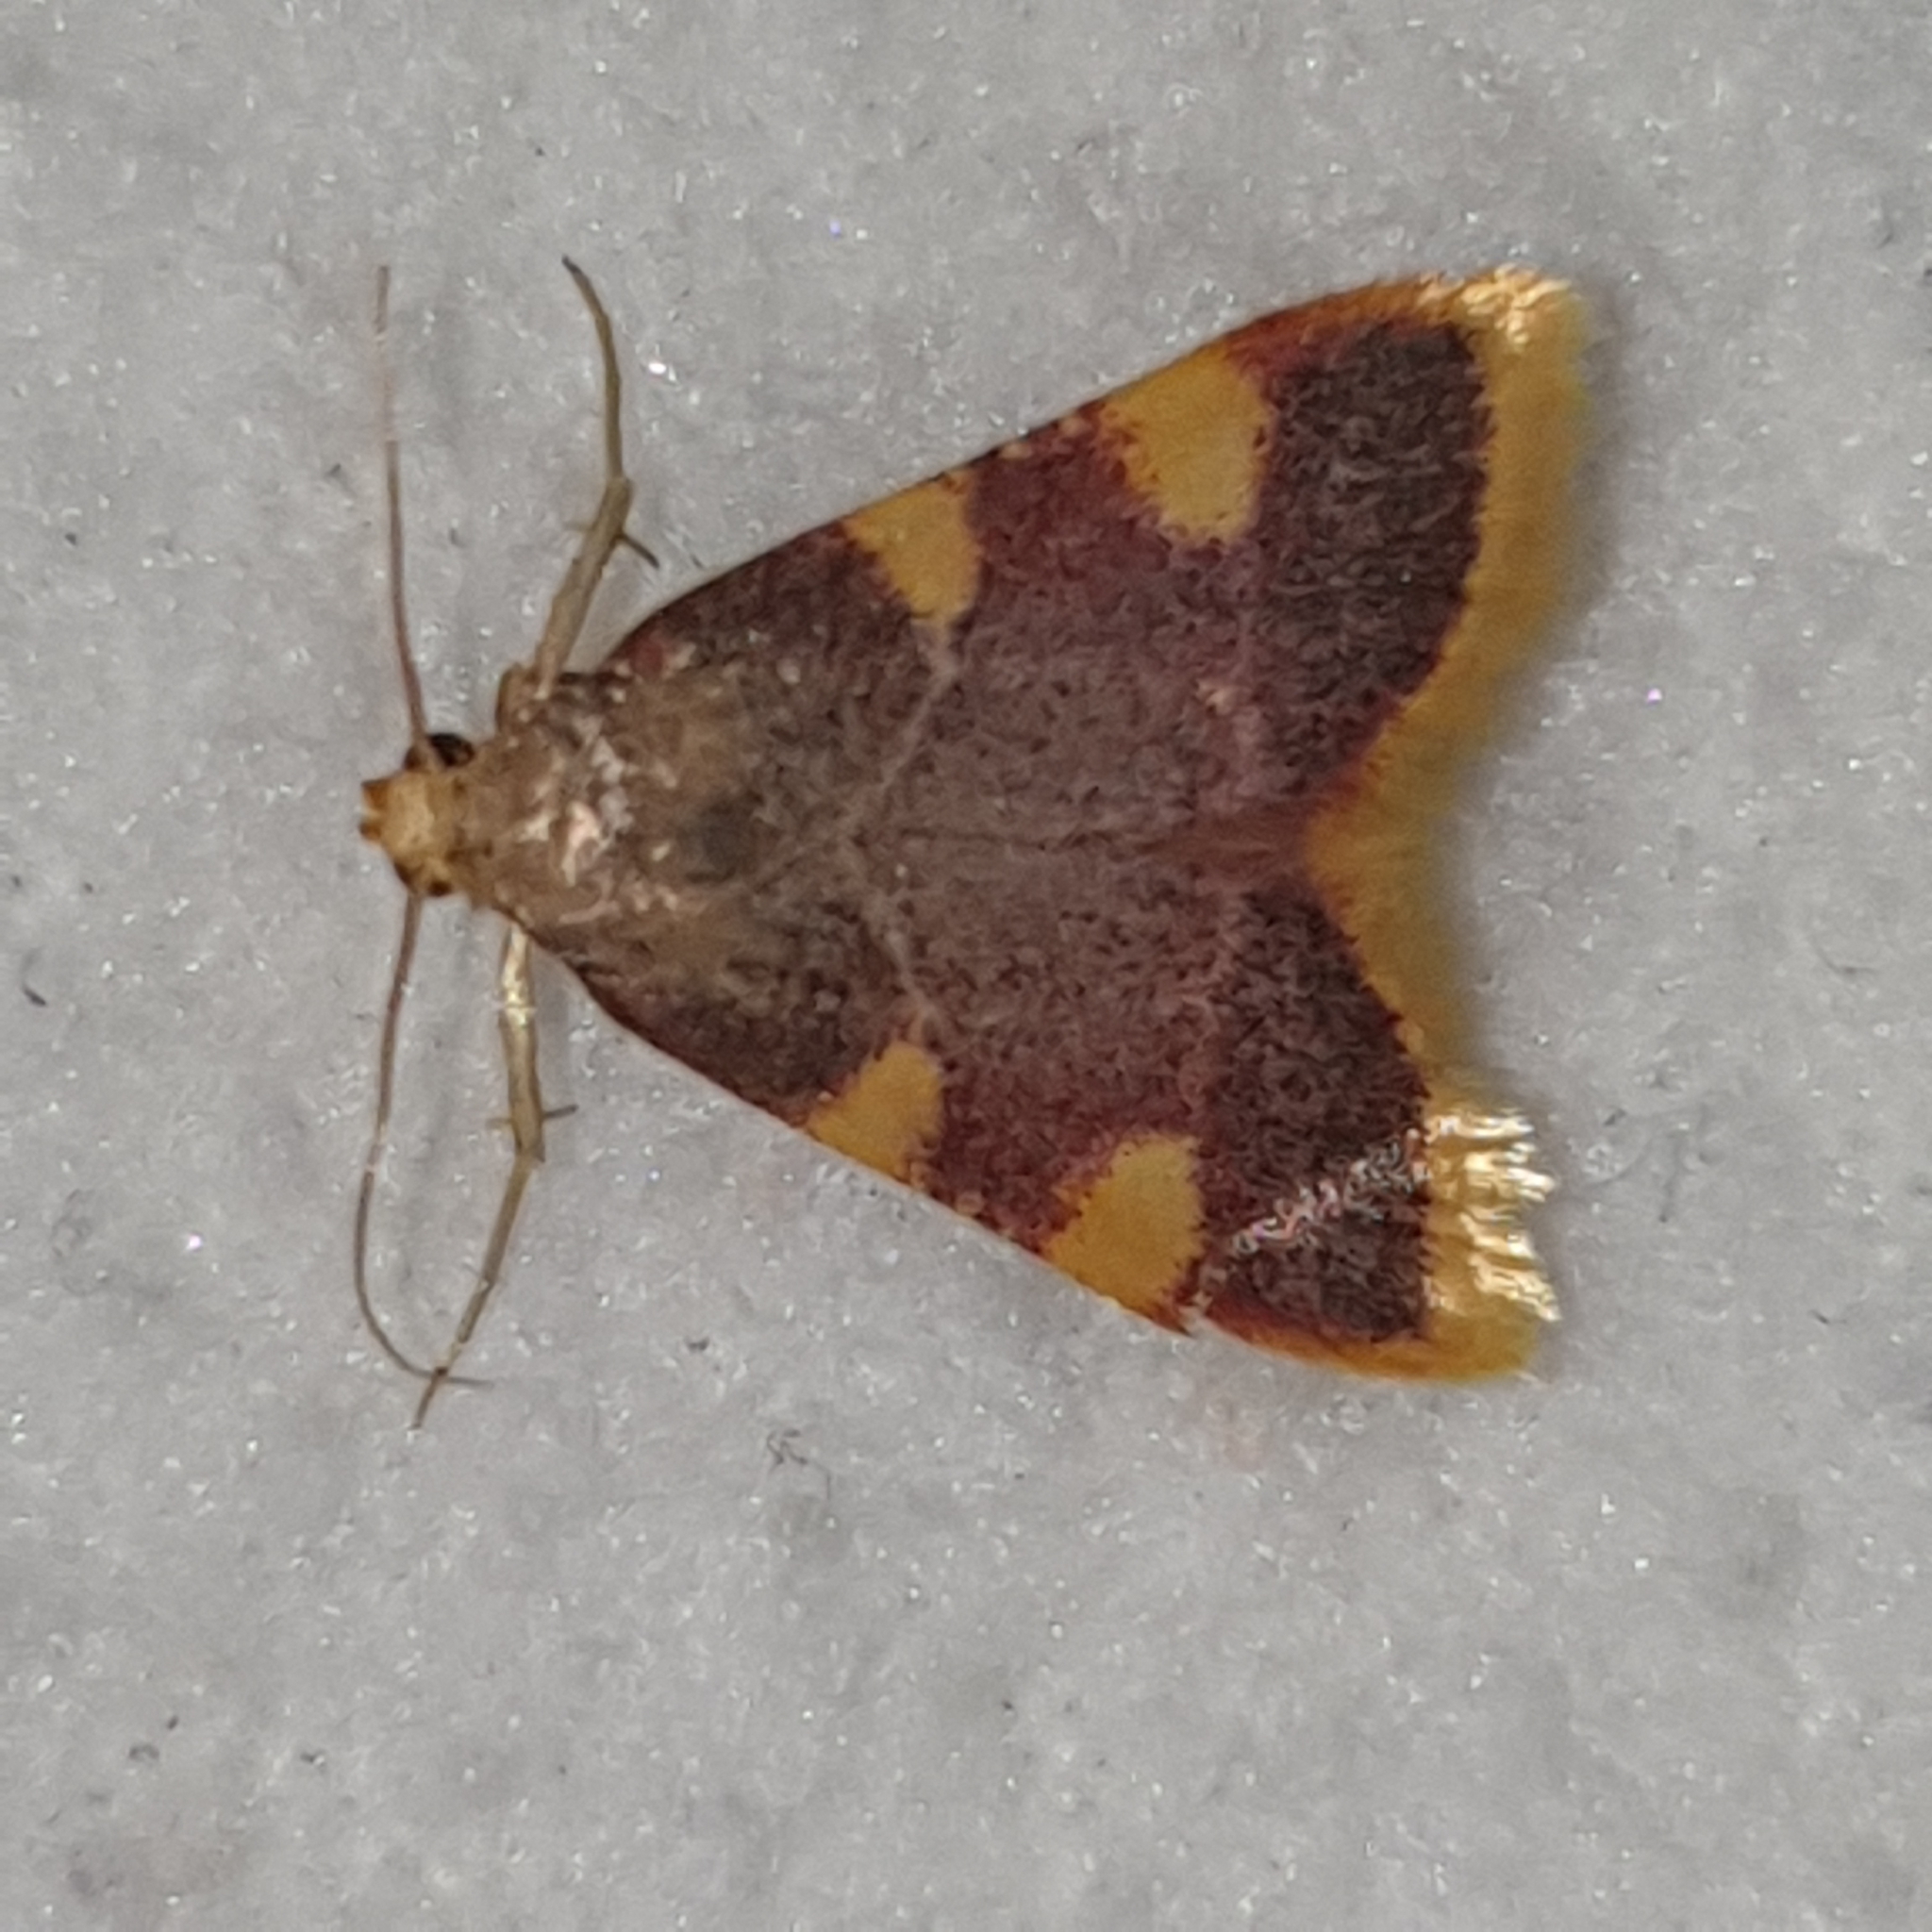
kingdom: Animalia
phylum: Arthropoda
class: Insecta
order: Lepidoptera
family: Pyralidae
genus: Hypsopygia
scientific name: Hypsopygia costalis
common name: Gold triangle
